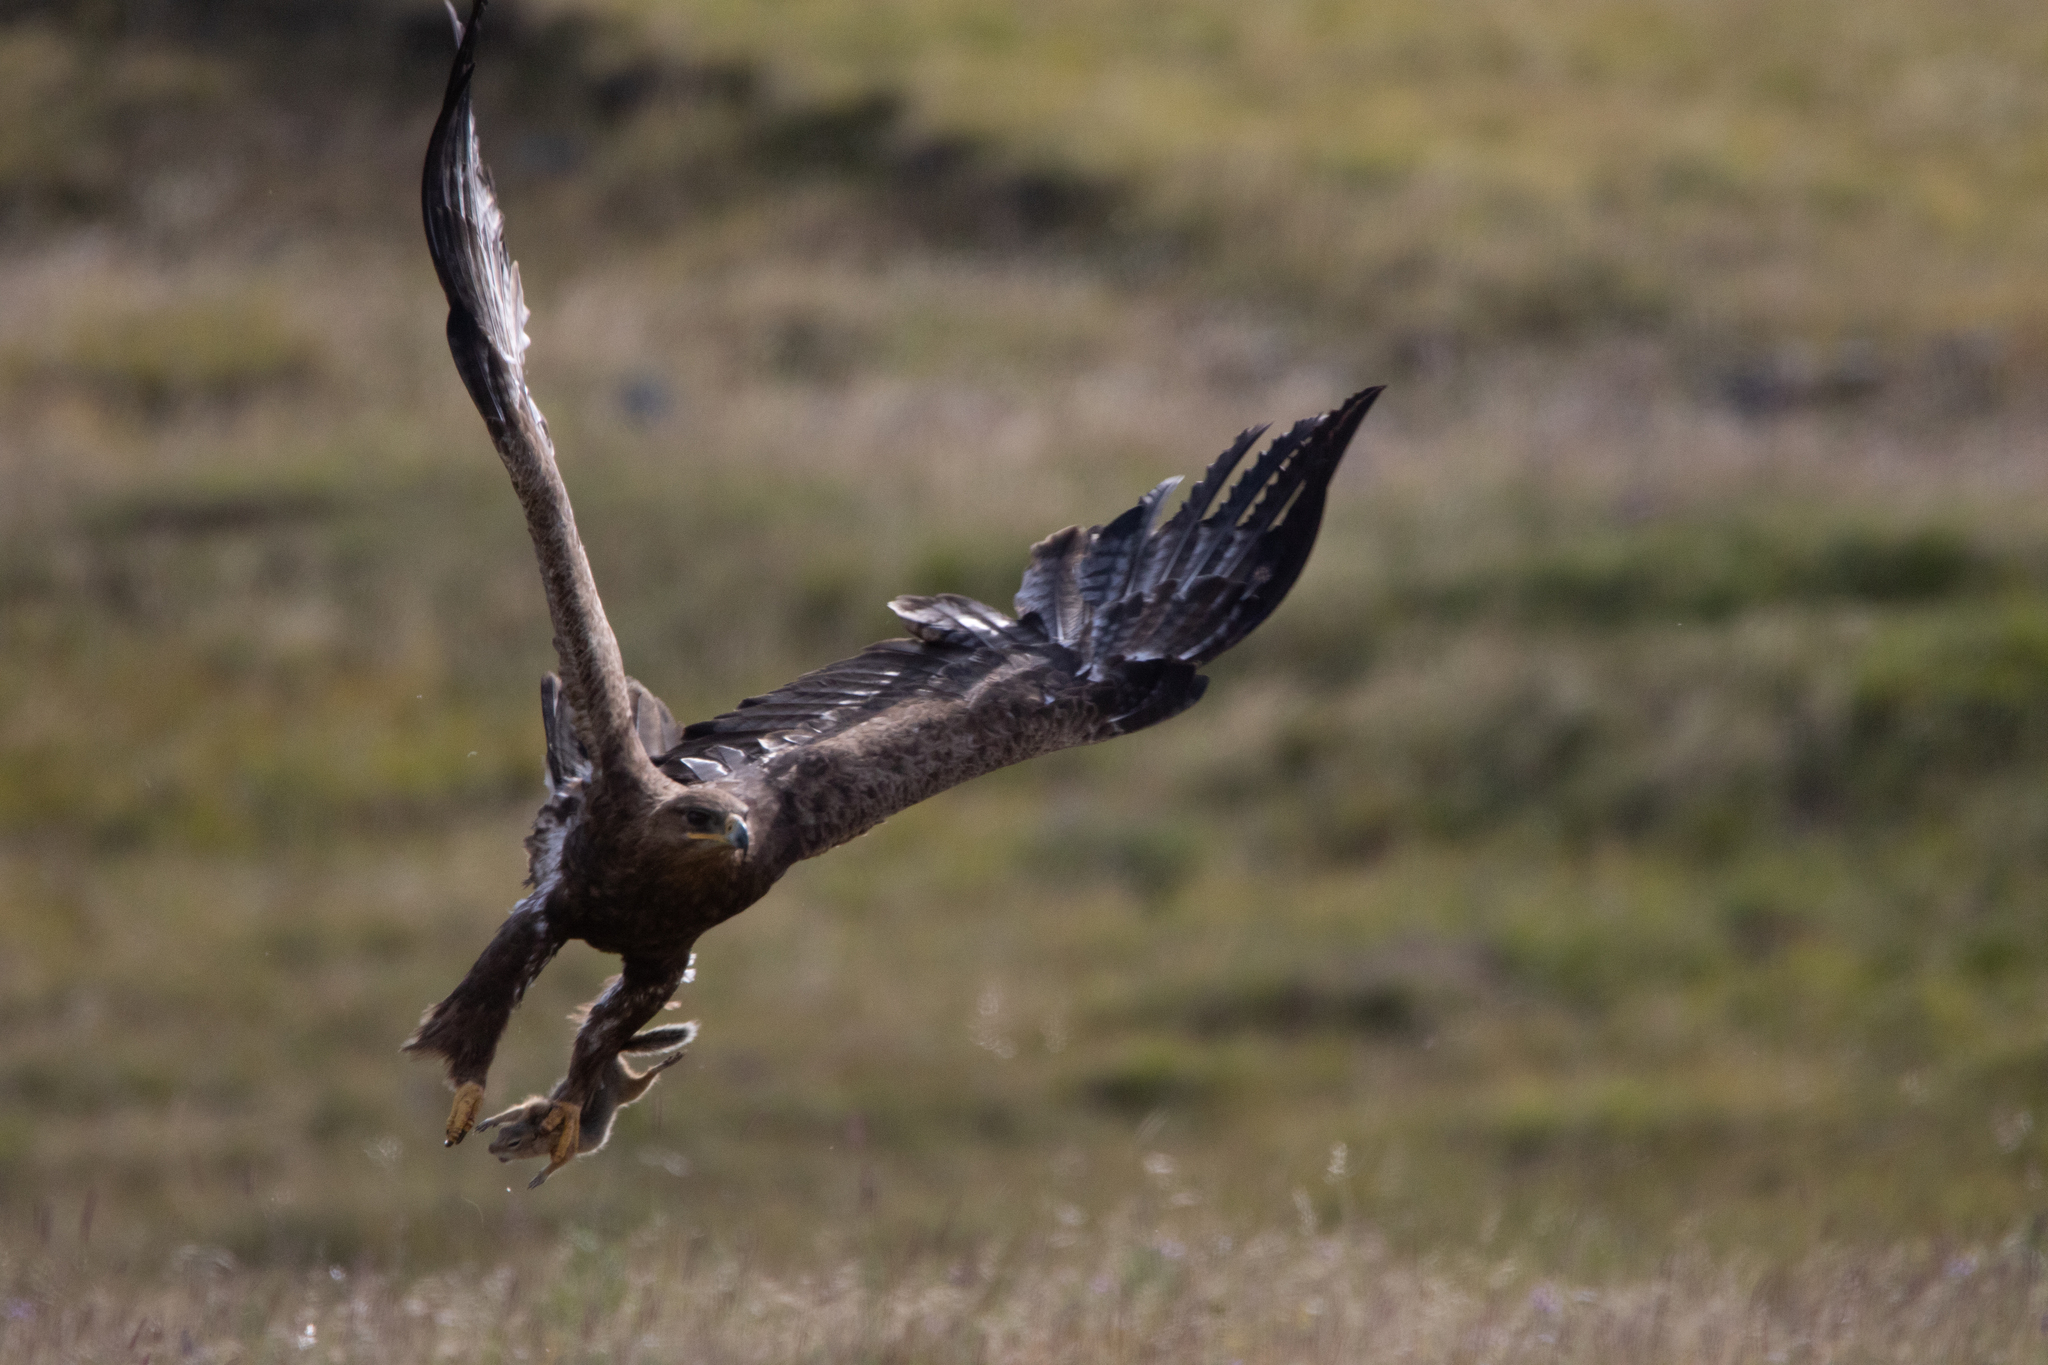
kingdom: Animalia
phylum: Chordata
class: Aves
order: Accipitriformes
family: Accipitridae
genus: Aquila
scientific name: Aquila nipalensis
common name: Steppe eagle
